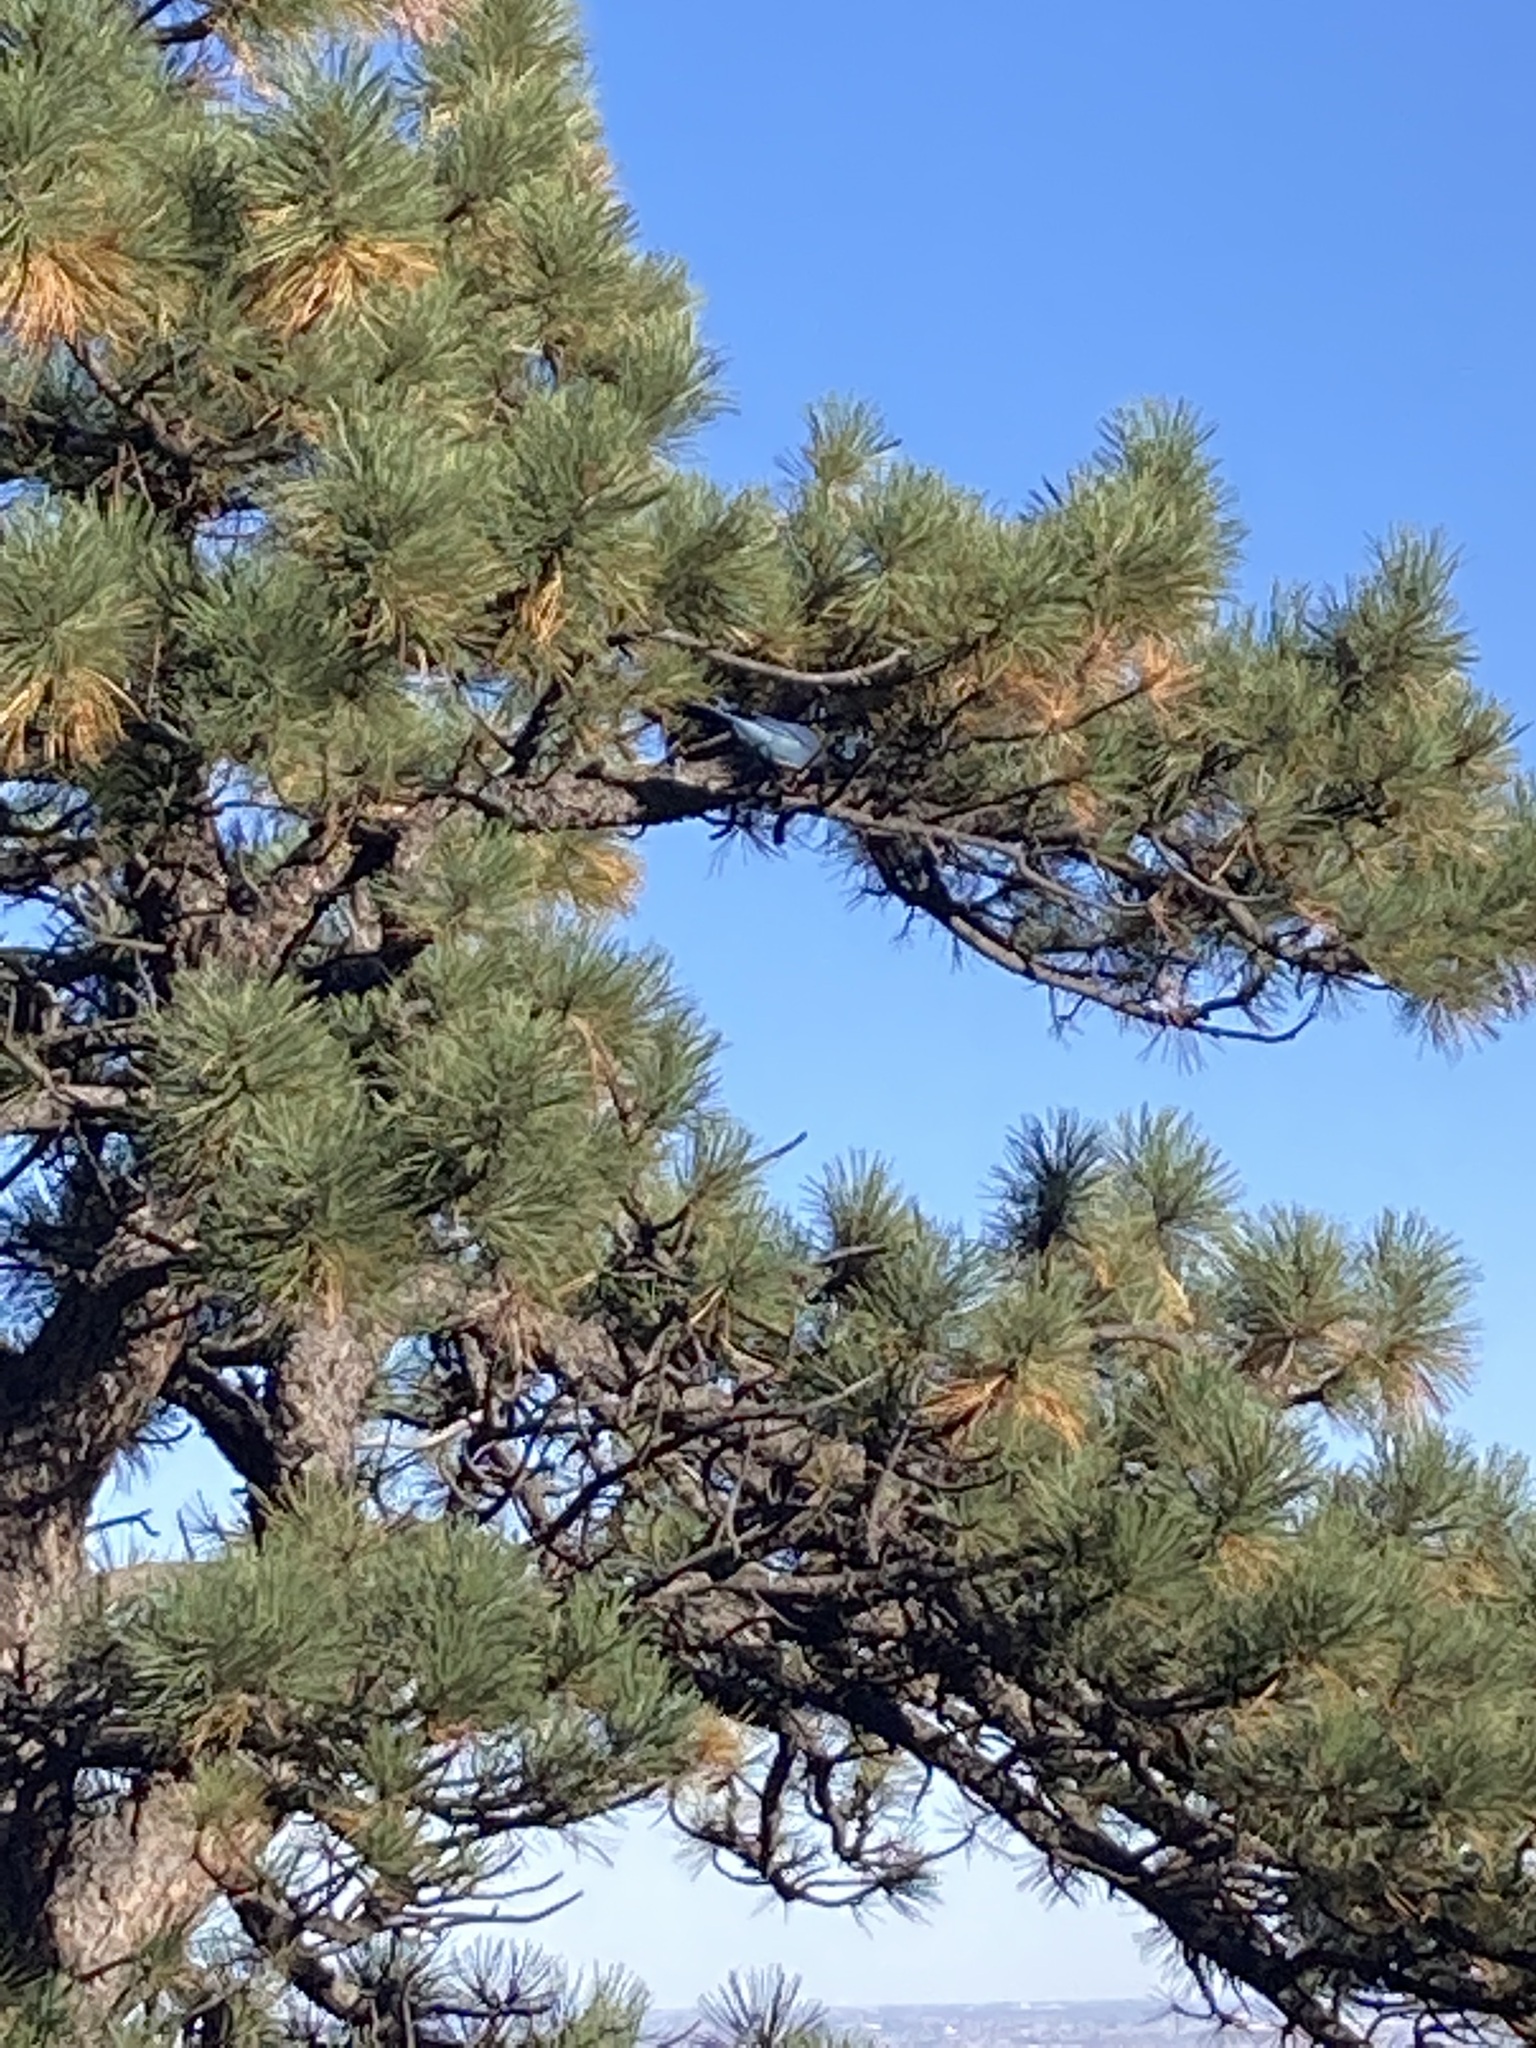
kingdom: Animalia
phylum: Chordata
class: Aves
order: Passeriformes
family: Corvidae
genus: Cyanocitta
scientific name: Cyanocitta stelleri
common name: Steller's jay
